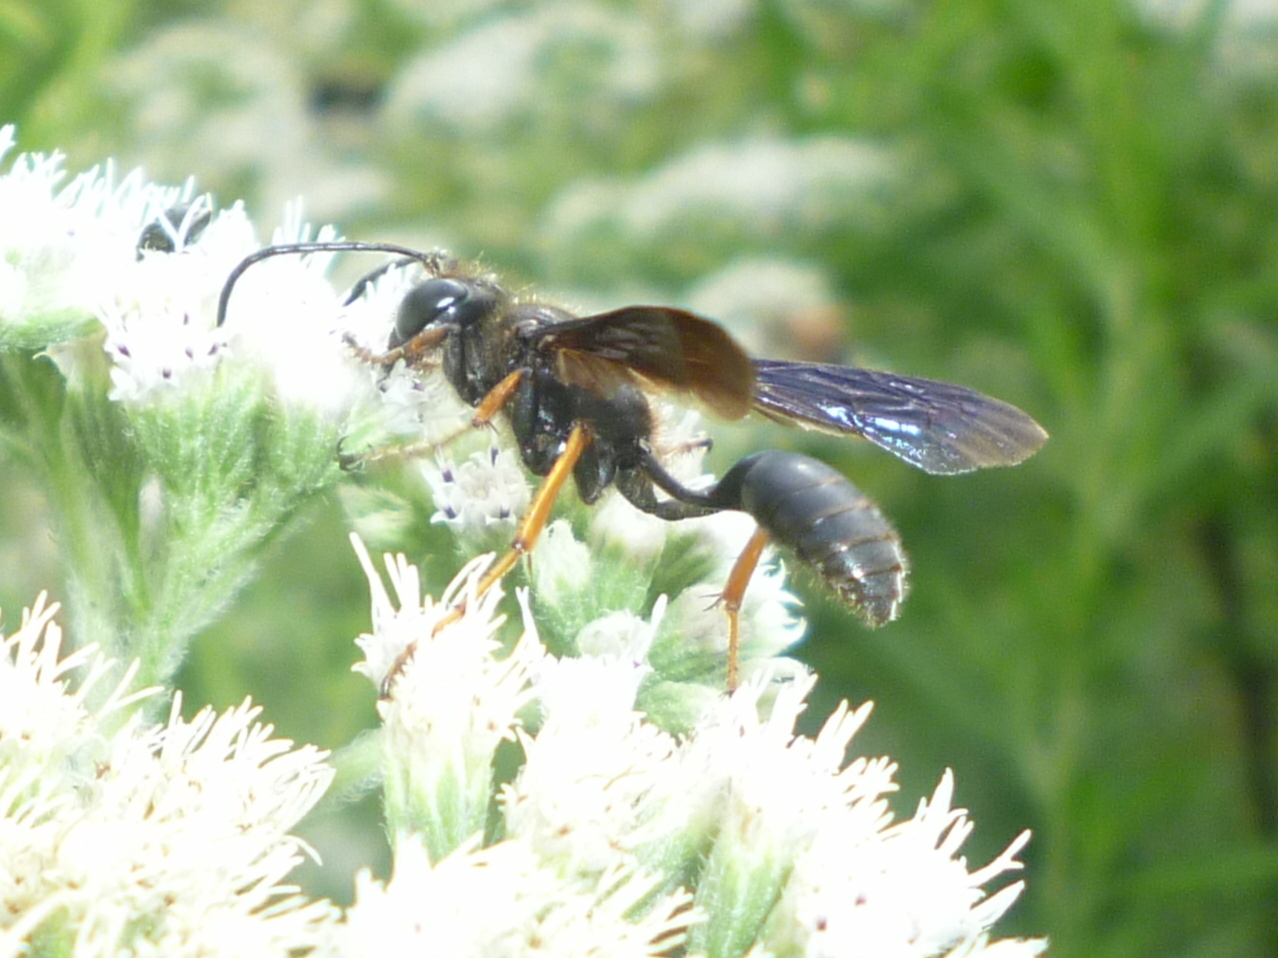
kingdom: Animalia
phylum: Arthropoda
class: Insecta
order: Hymenoptera
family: Sphecidae
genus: Isodontia
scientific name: Isodontia auripes
